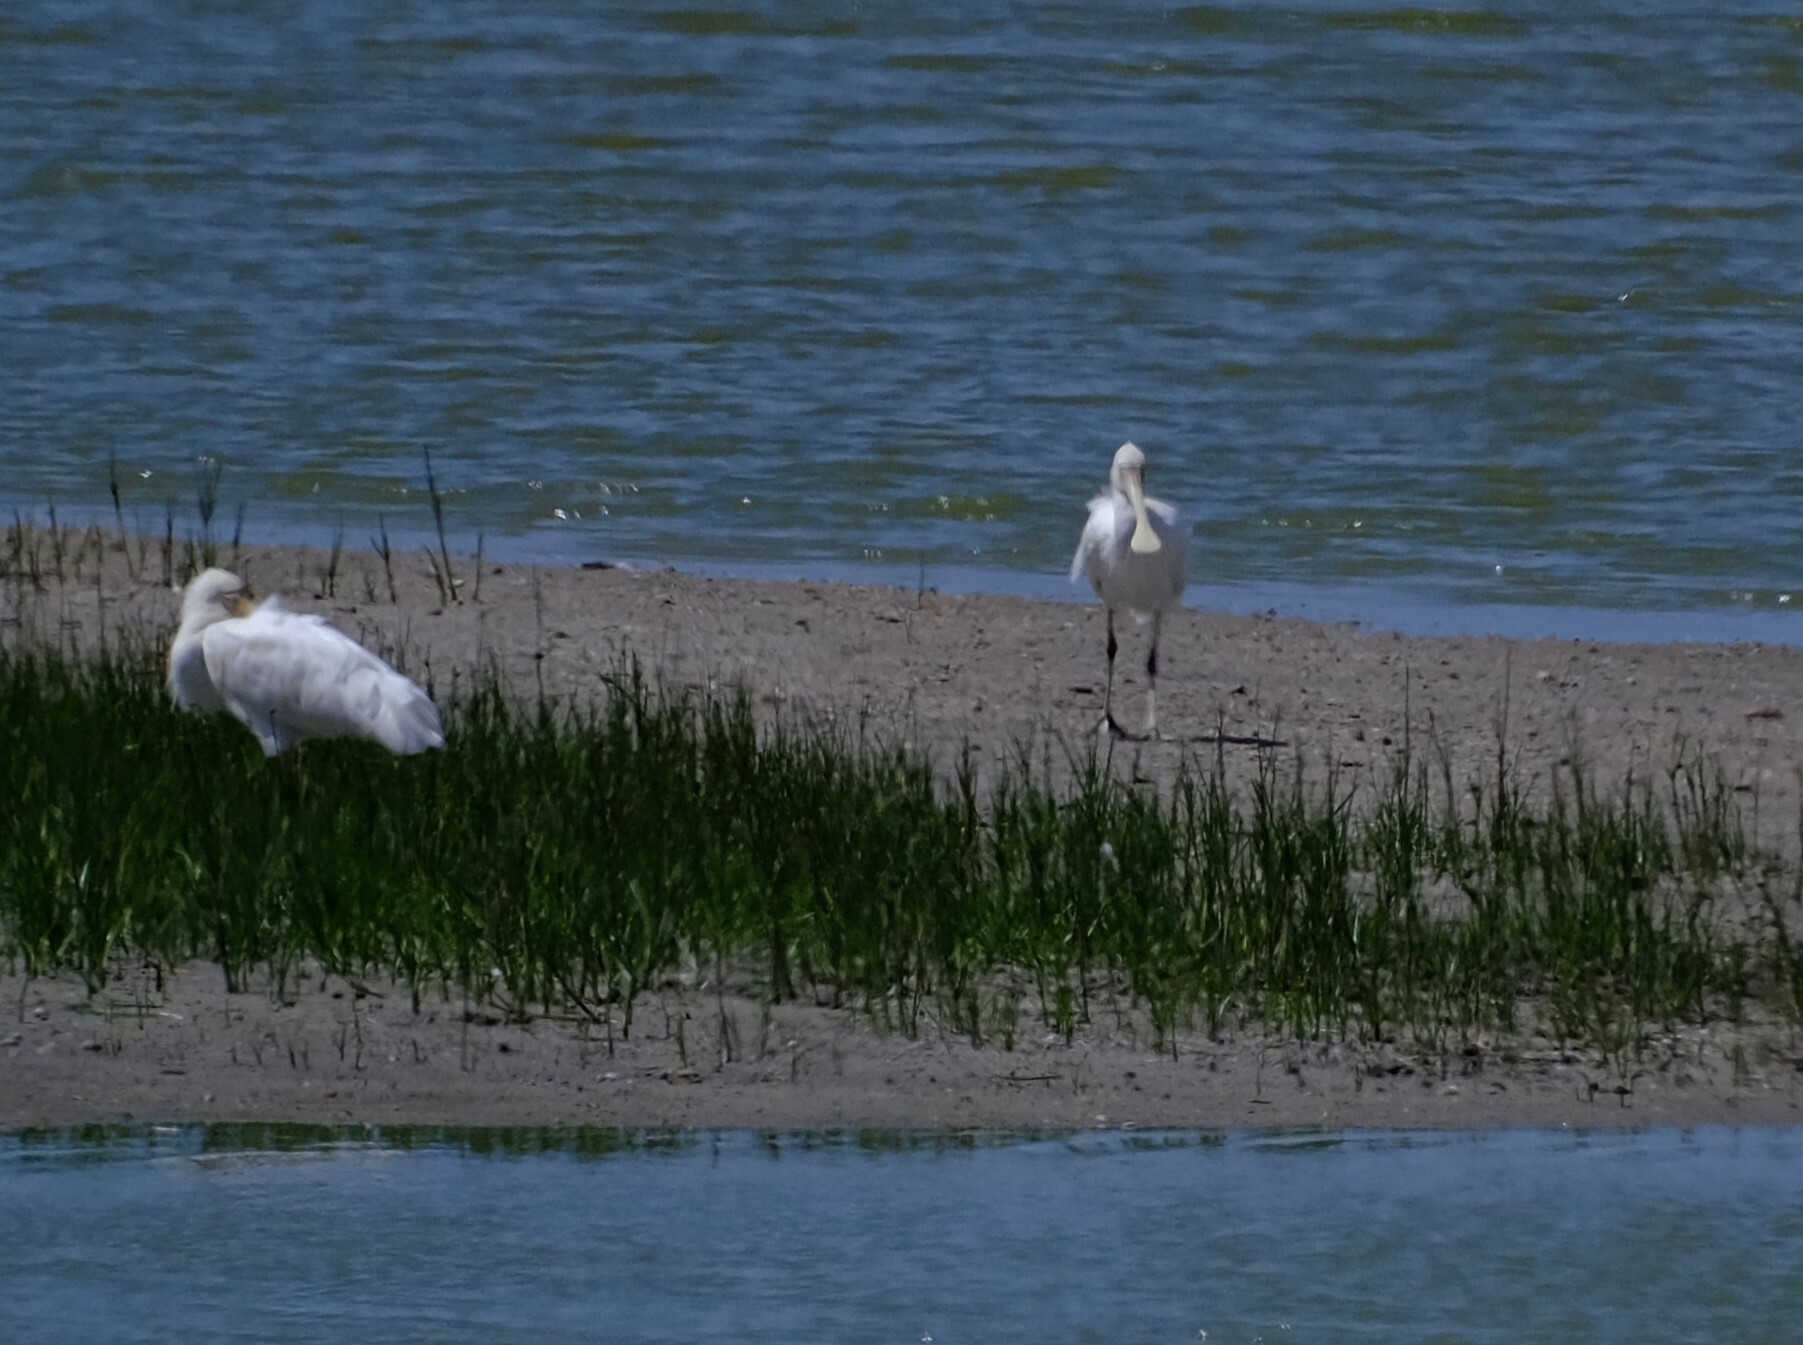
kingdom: Animalia
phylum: Chordata
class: Aves
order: Pelecaniformes
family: Threskiornithidae
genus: Platalea
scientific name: Platalea flavipes
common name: Yellow-billed spoonbill
